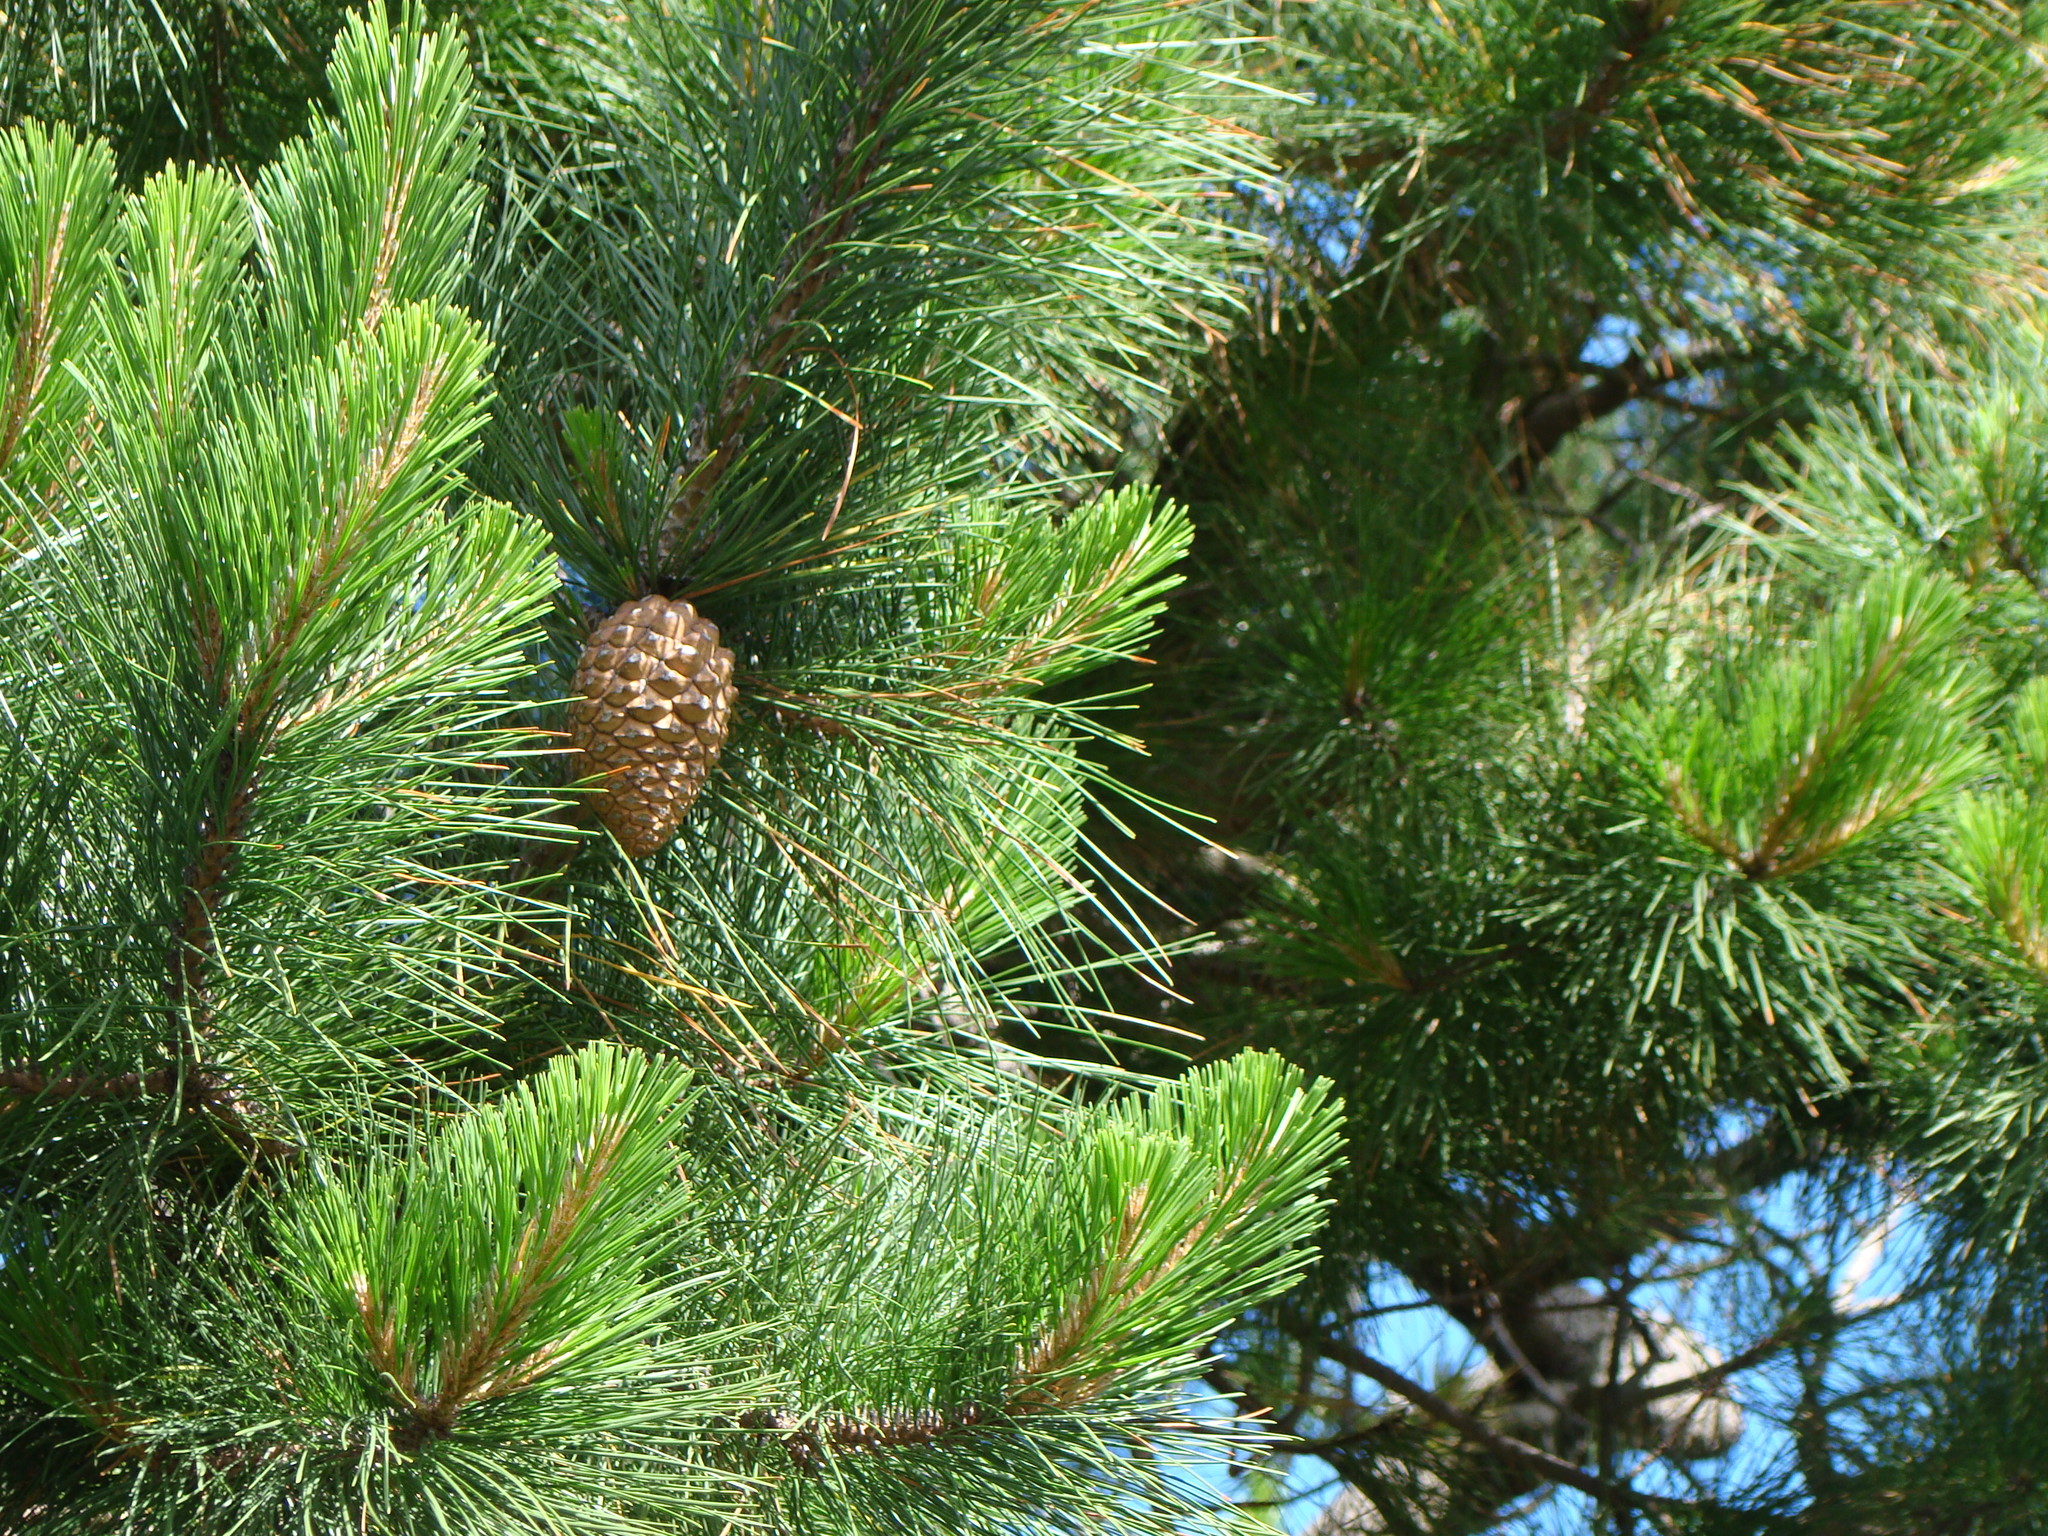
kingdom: Plantae
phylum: Tracheophyta
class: Pinopsida
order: Pinales
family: Pinaceae
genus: Pinus
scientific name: Pinus radiata
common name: Monterey pine
